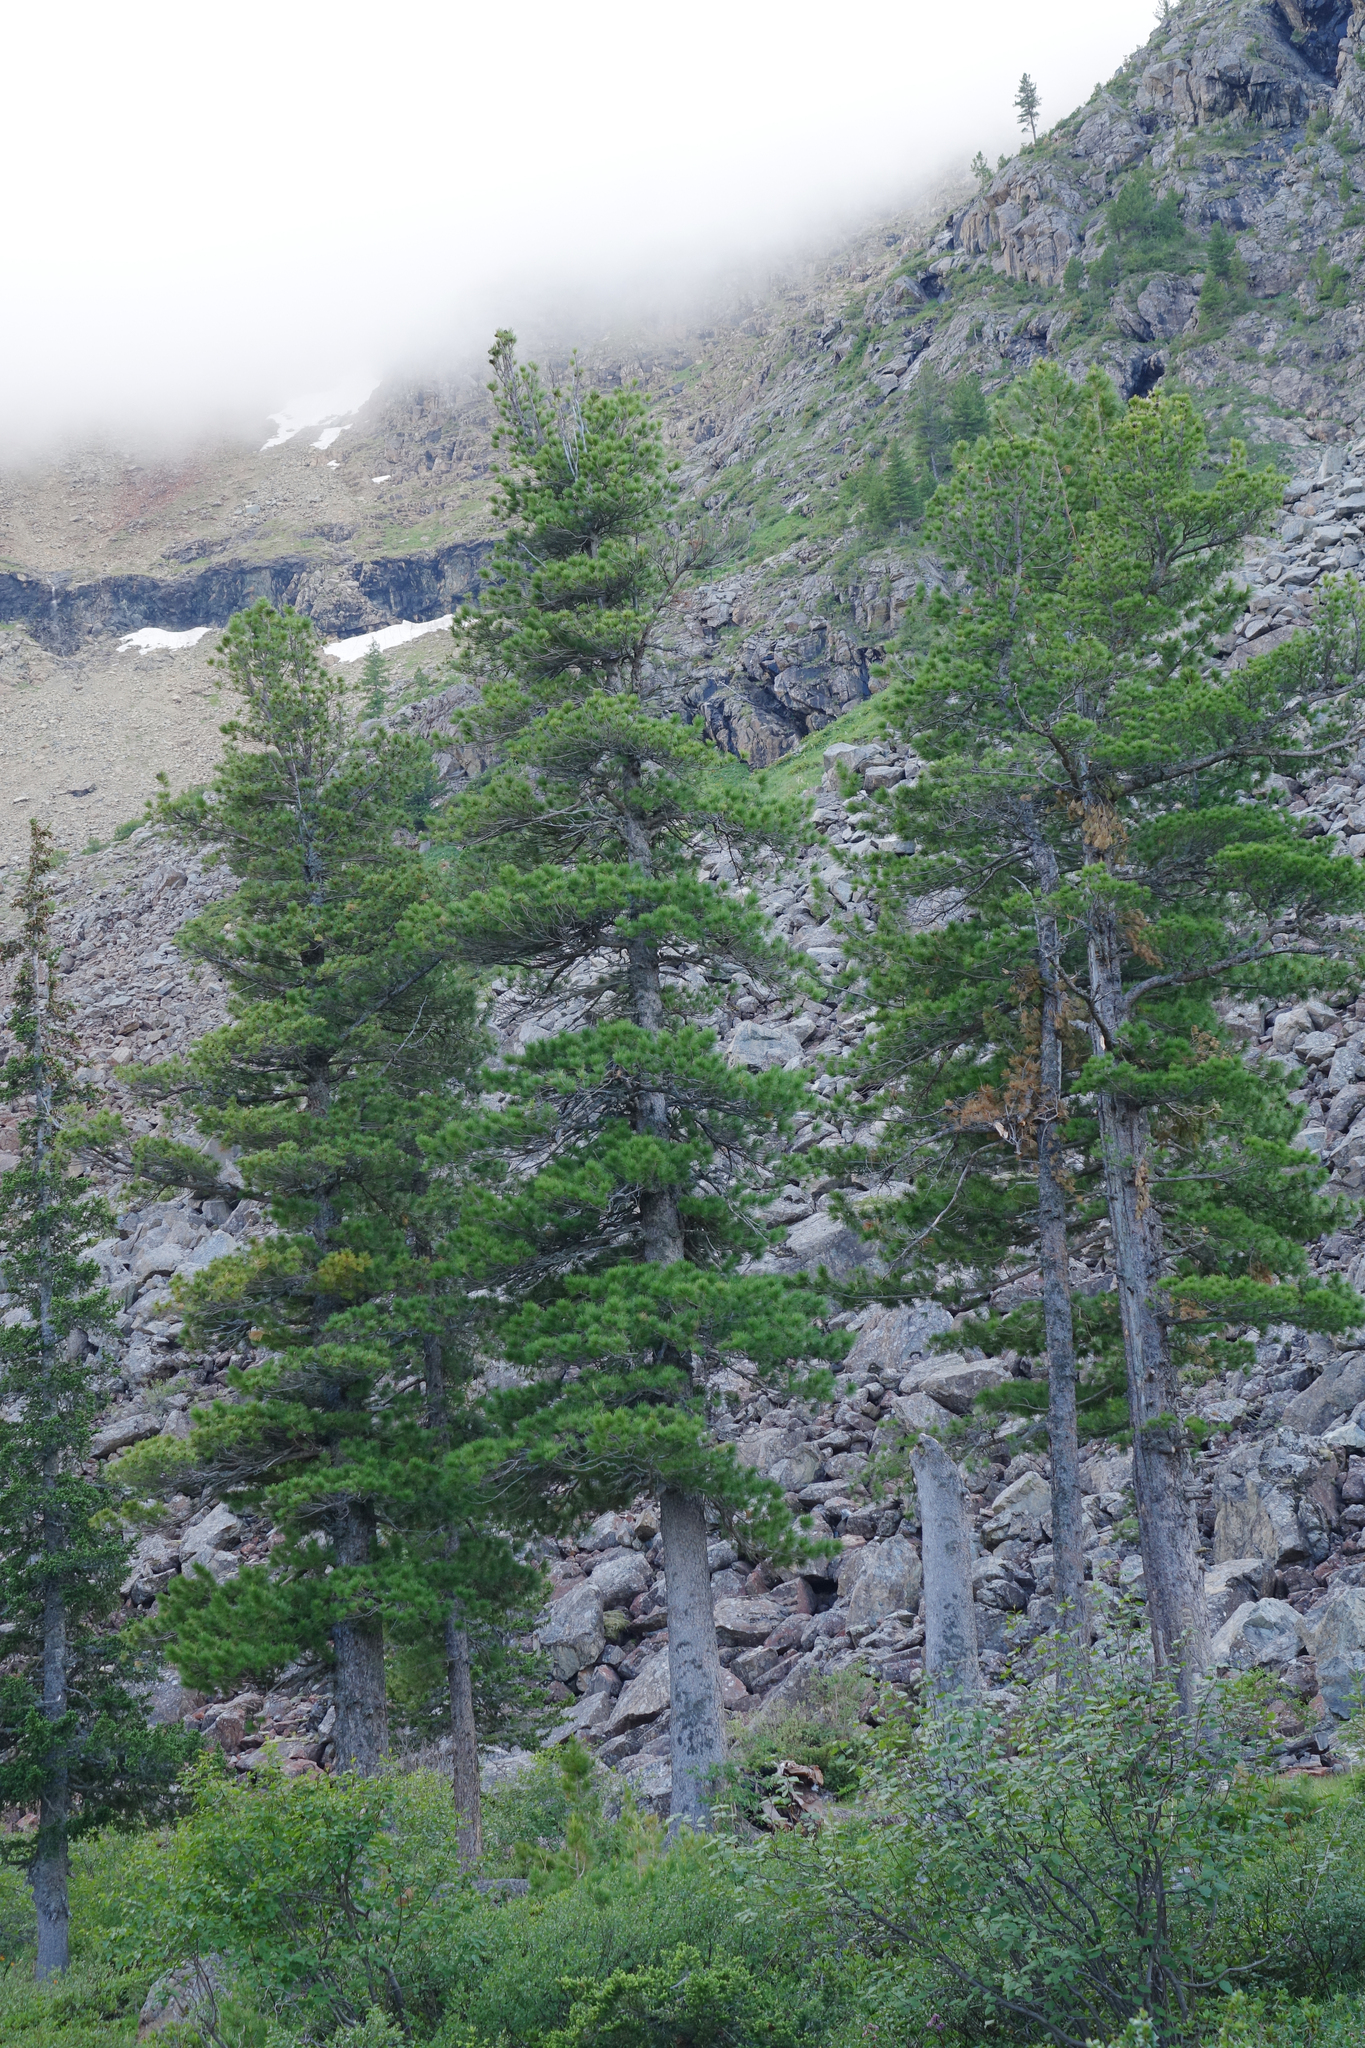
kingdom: Plantae
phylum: Tracheophyta
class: Pinopsida
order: Pinales
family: Pinaceae
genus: Pinus
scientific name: Pinus sibirica
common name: Siberian pine
